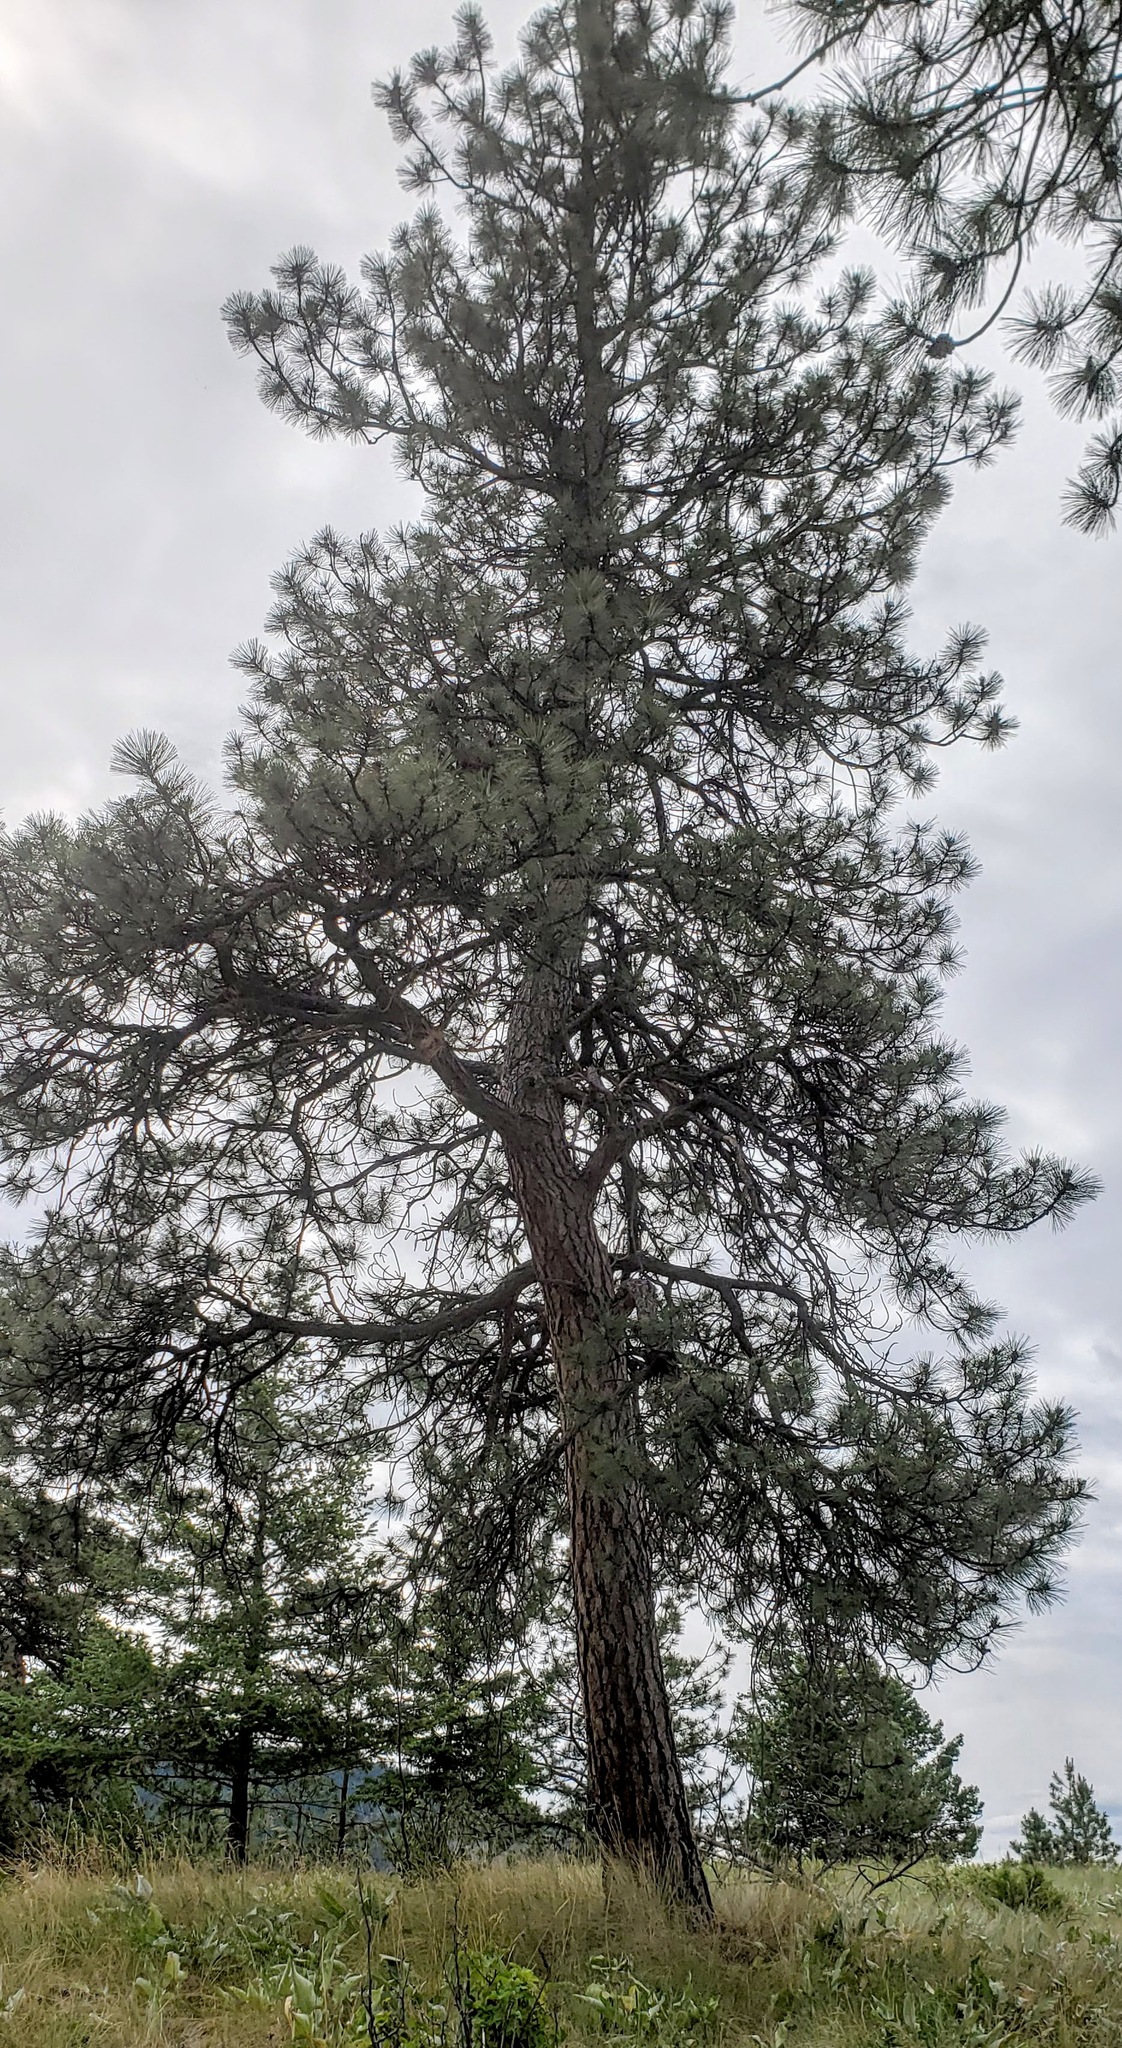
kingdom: Plantae
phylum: Tracheophyta
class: Pinopsida
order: Pinales
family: Pinaceae
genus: Pinus
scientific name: Pinus ponderosa
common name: Western yellow-pine
